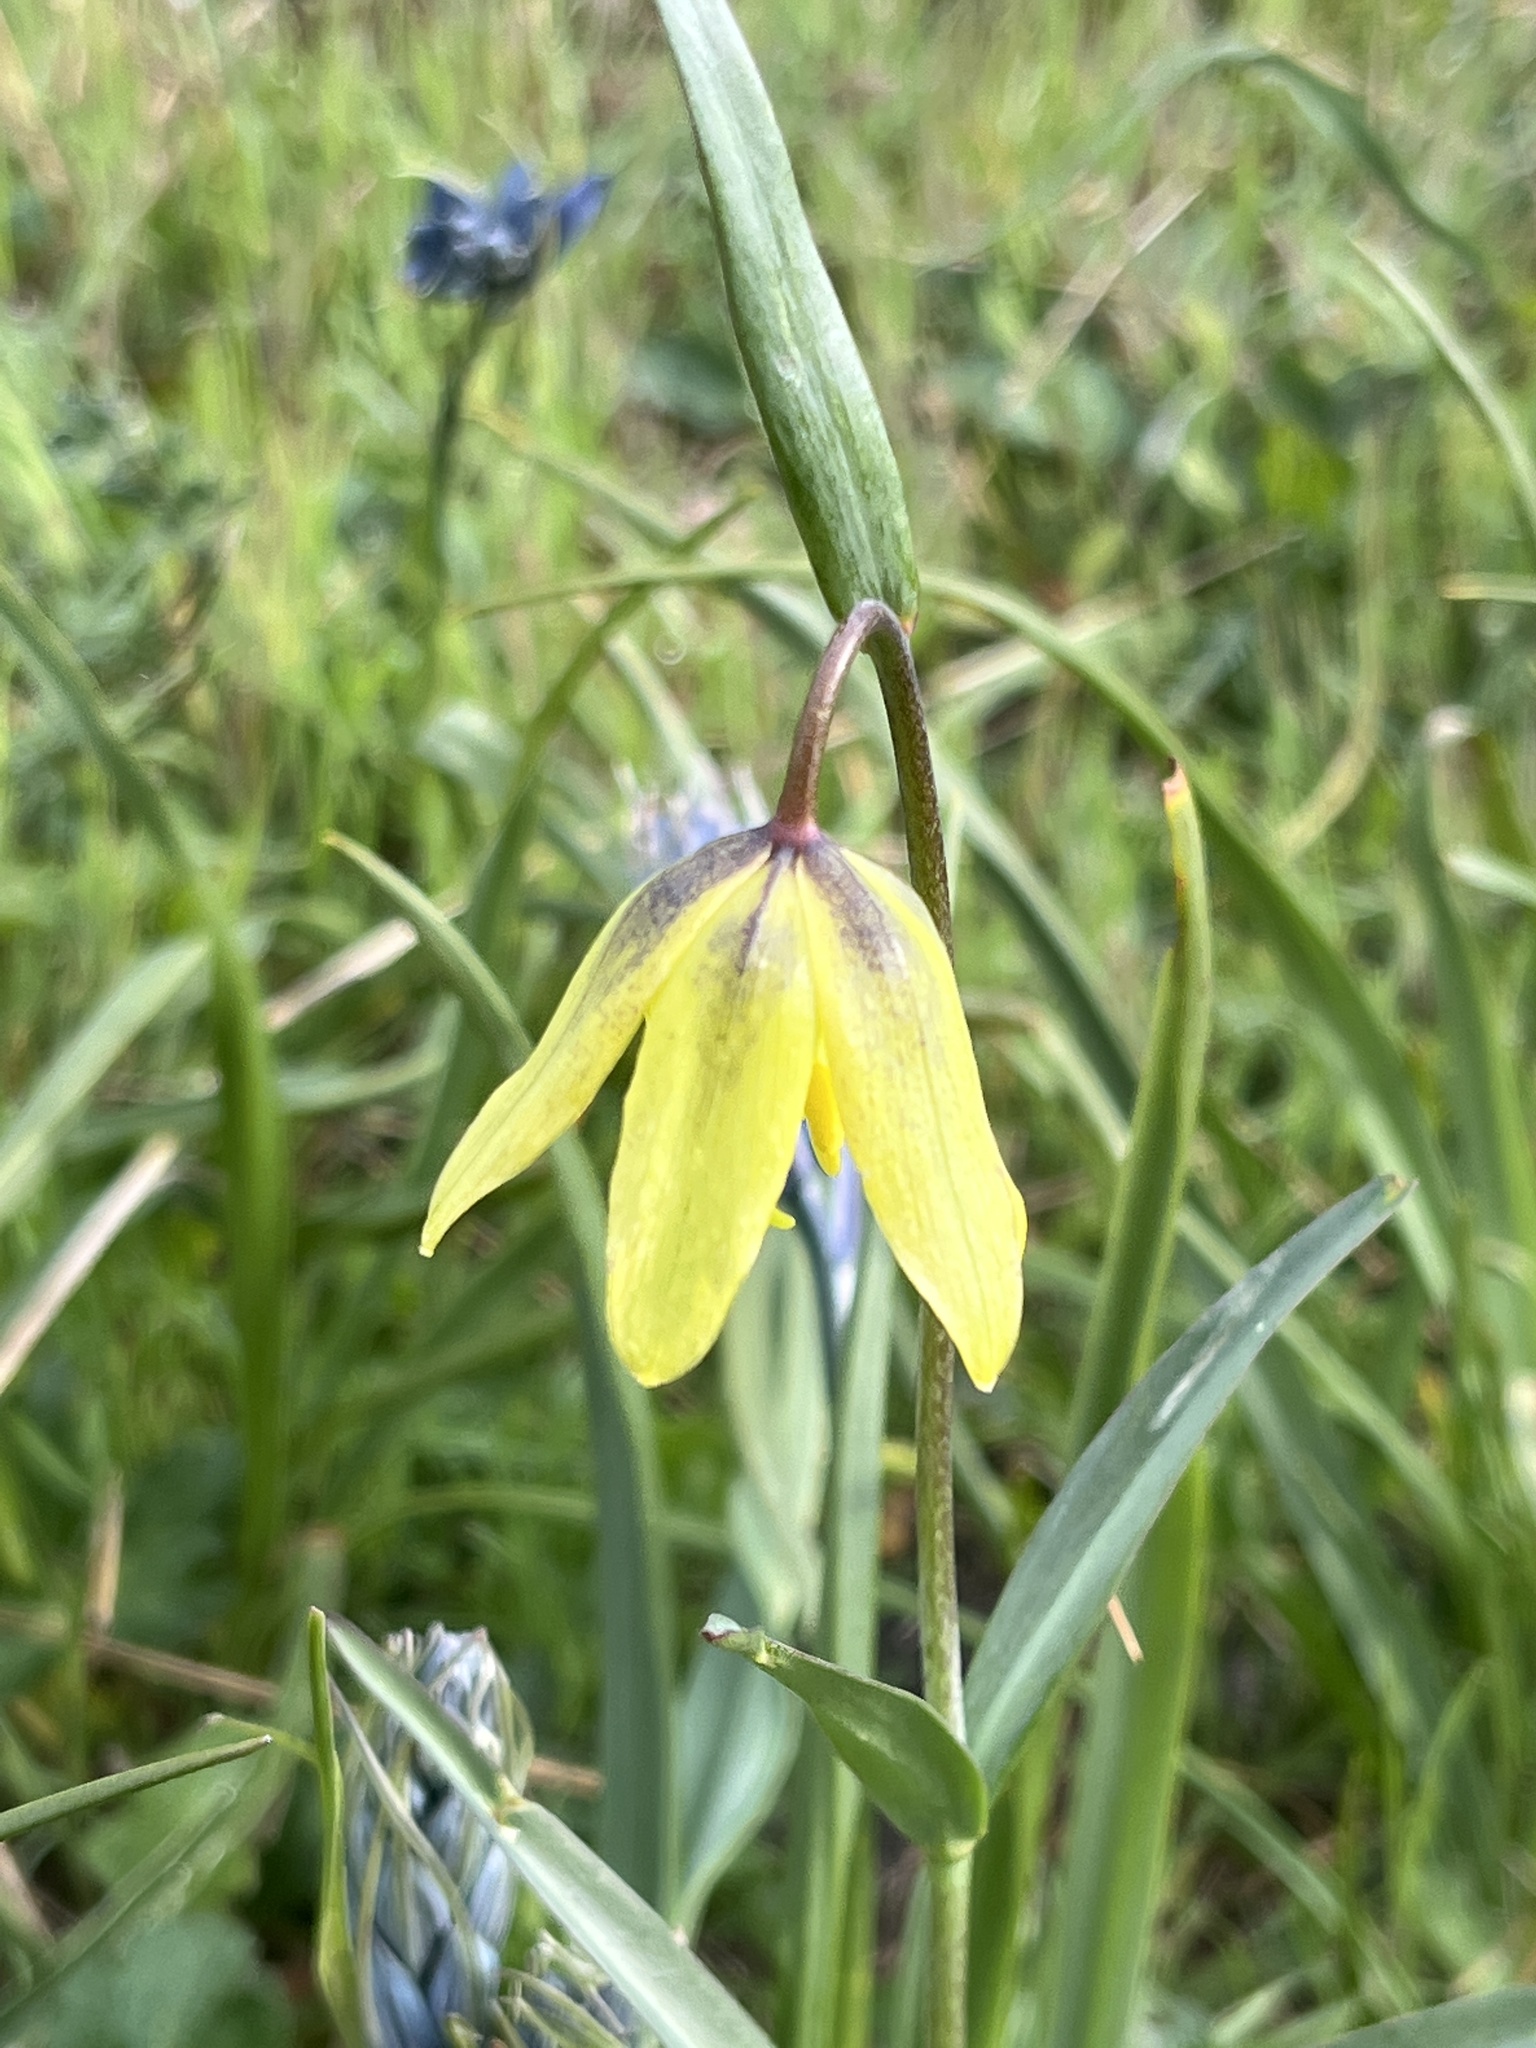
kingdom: Plantae
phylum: Tracheophyta
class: Liliopsida
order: Liliales
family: Liliaceae
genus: Fritillaria
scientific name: Fritillaria affinis
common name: Ojai fritillary
